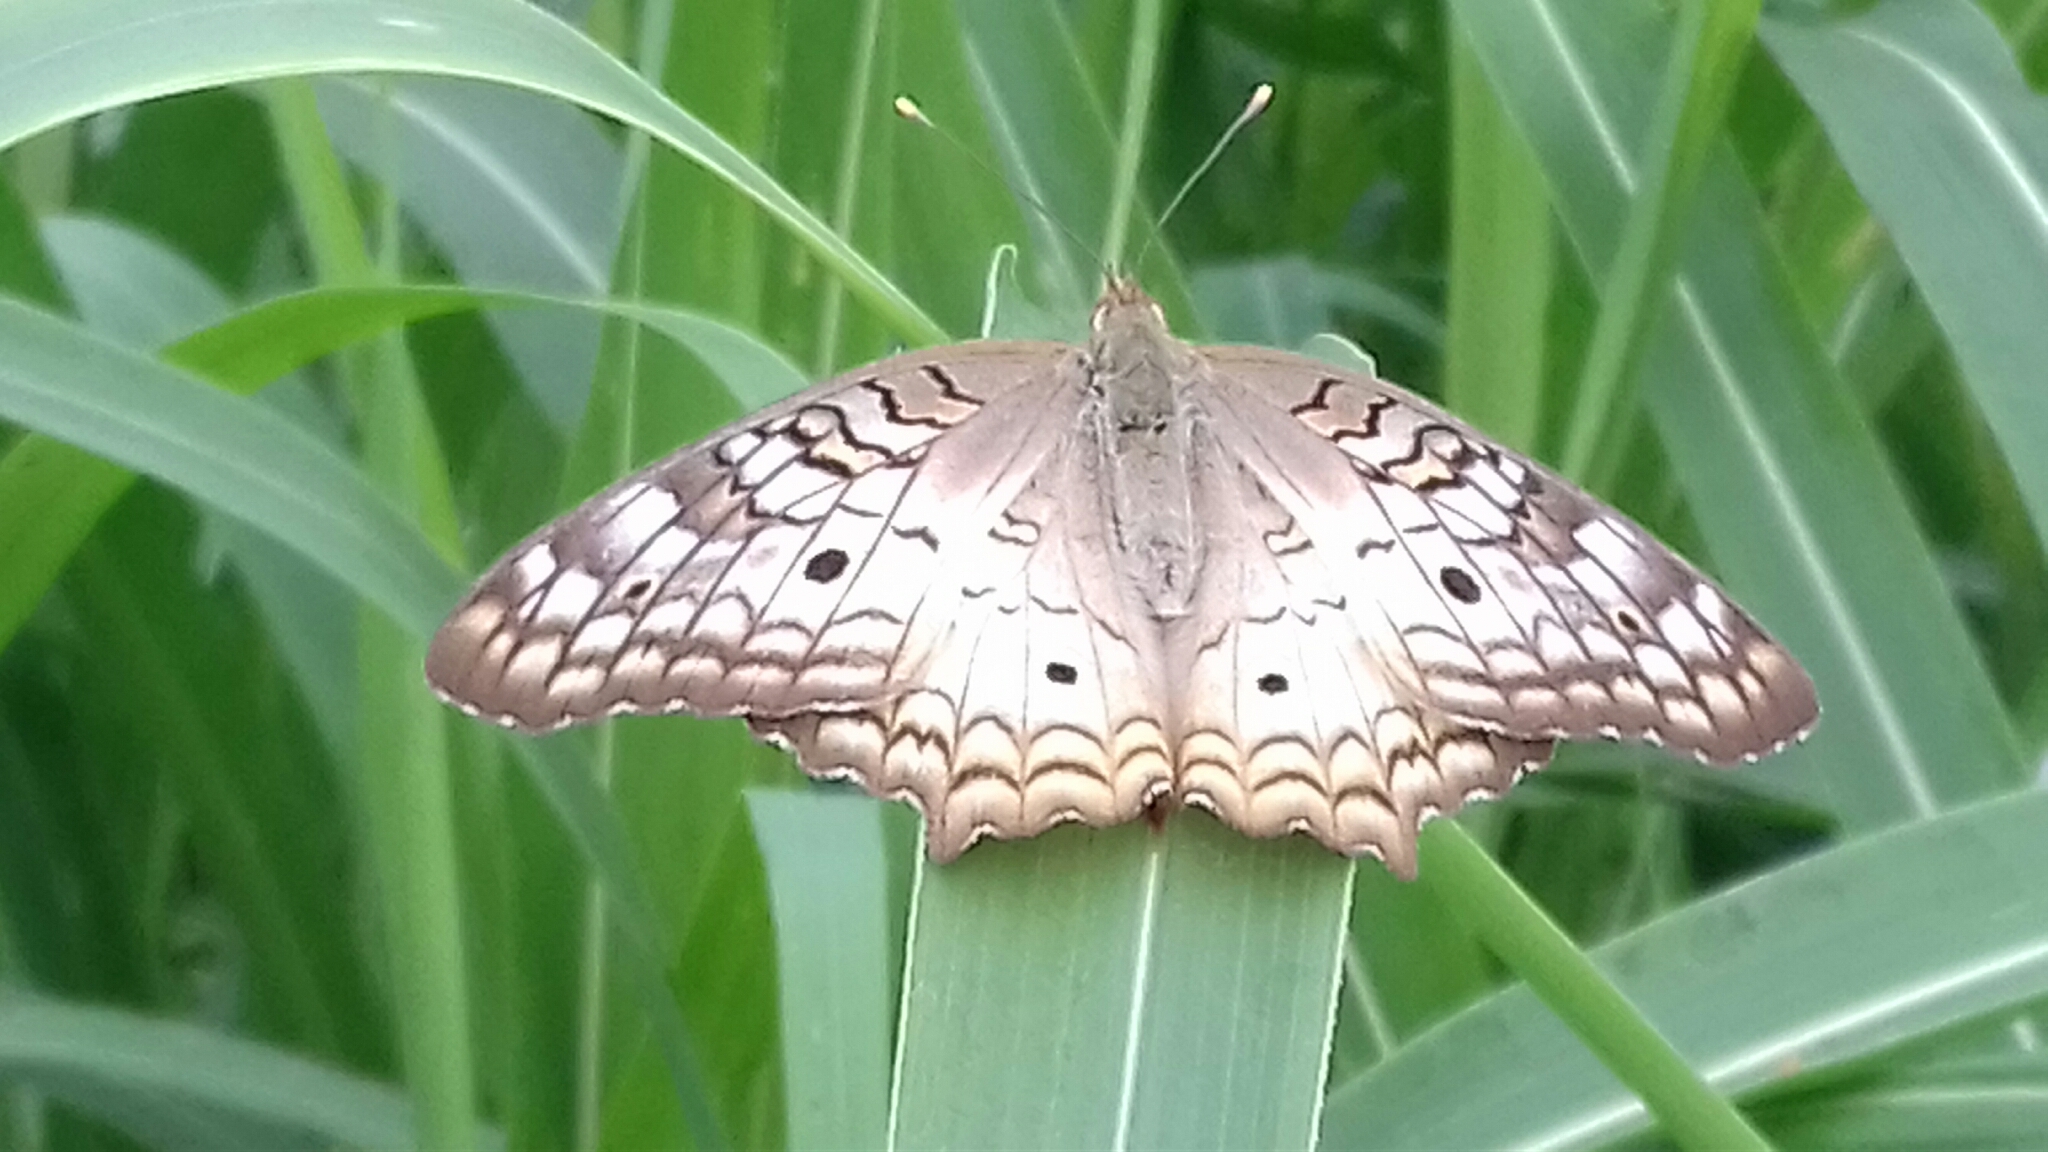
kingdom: Animalia
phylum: Arthropoda
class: Insecta
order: Lepidoptera
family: Nymphalidae
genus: Anartia
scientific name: Anartia jatrophae
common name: White peacock
